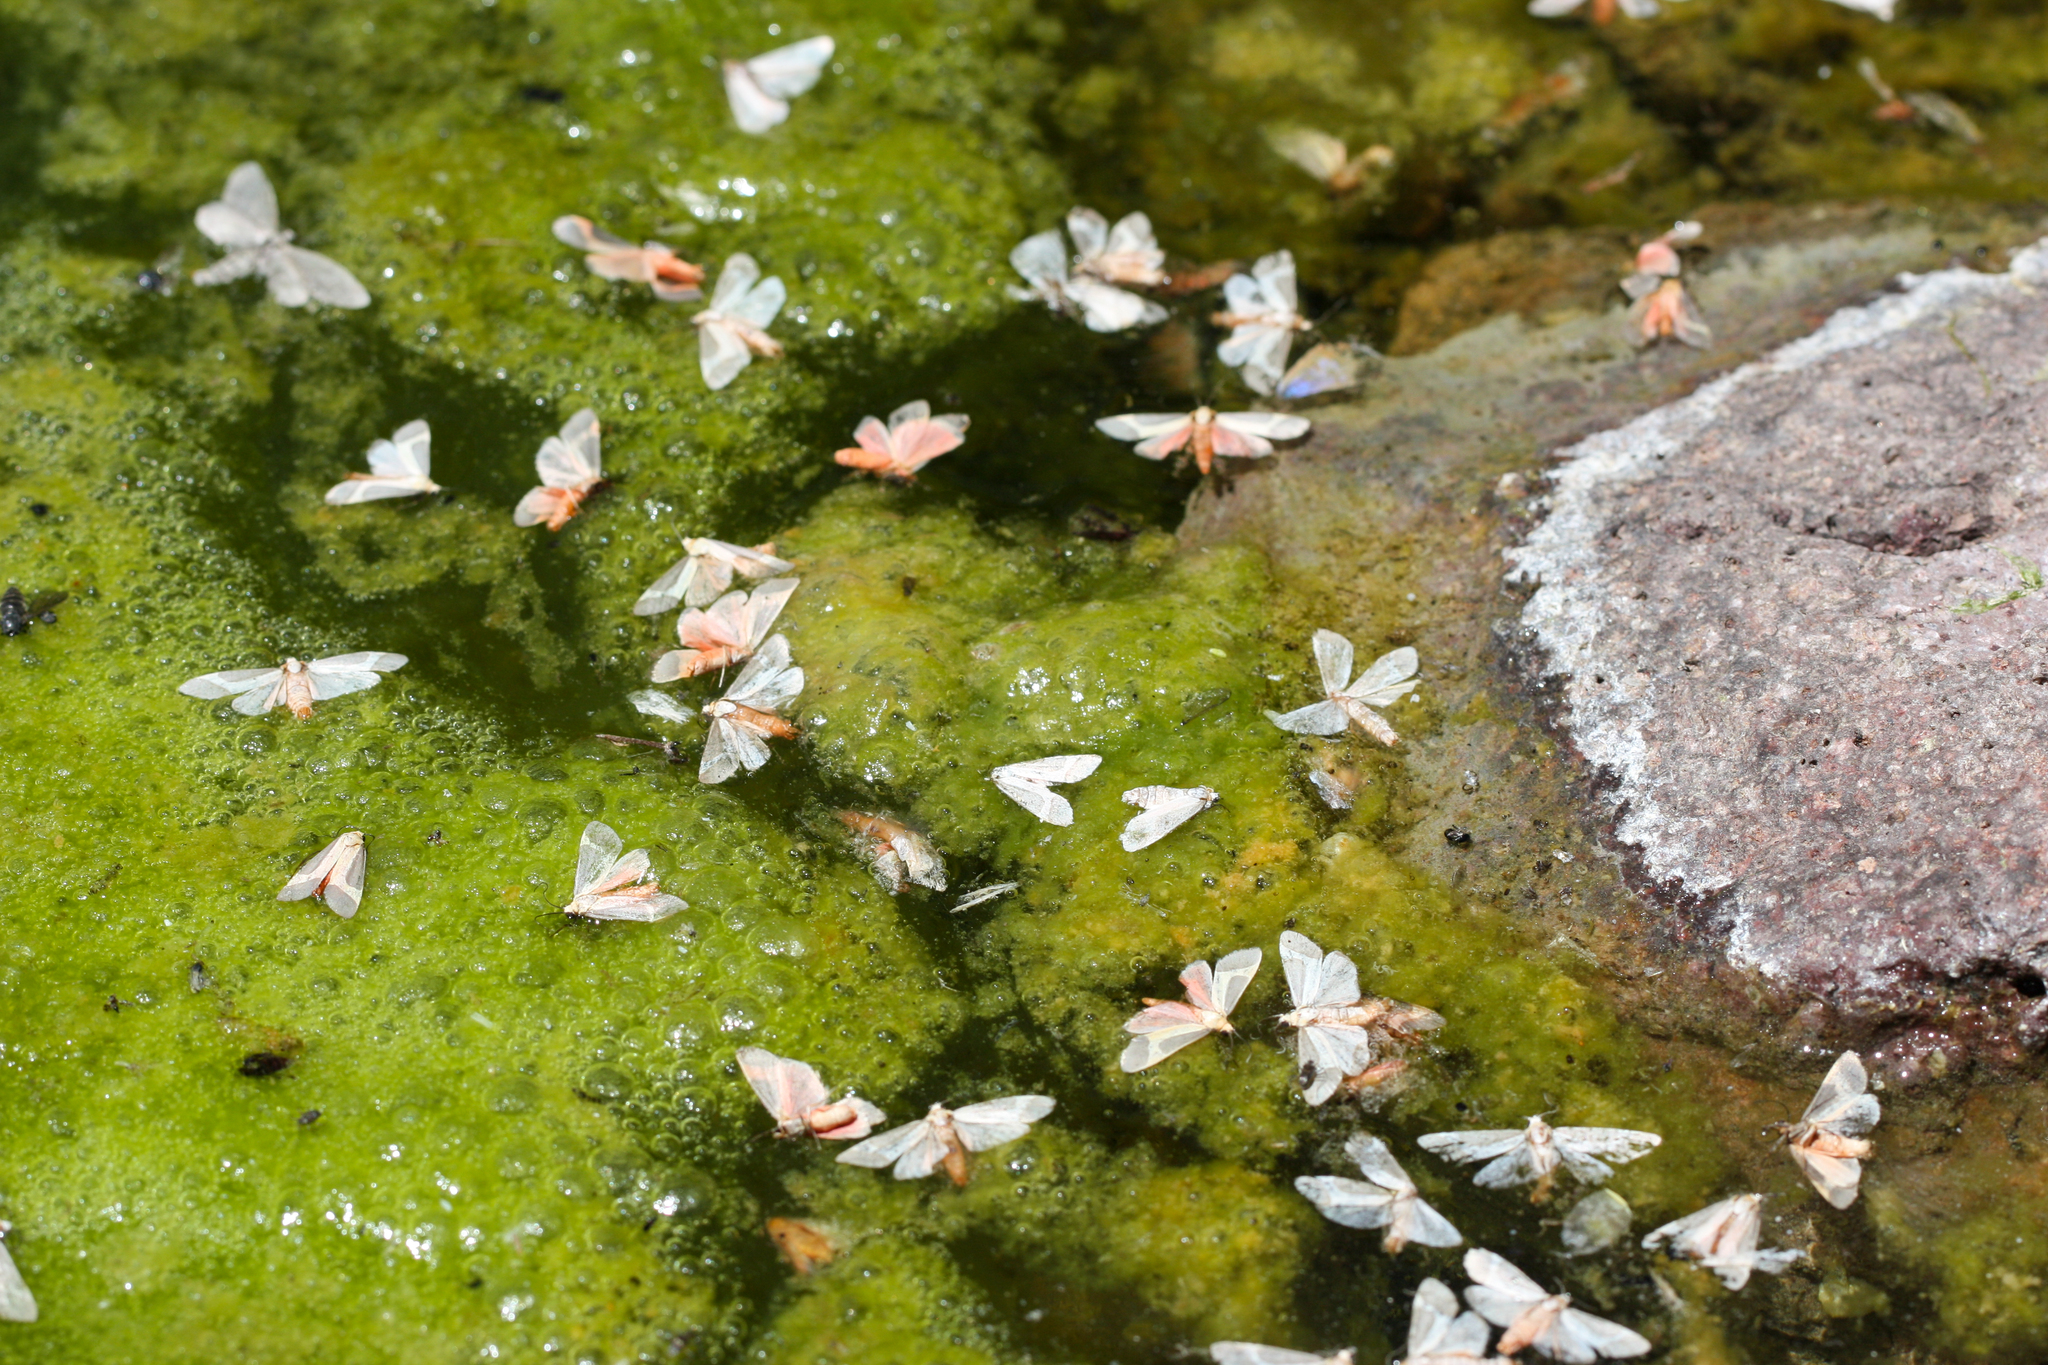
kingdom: Animalia
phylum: Arthropoda
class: Insecta
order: Lepidoptera
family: Erebidae
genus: Cisthene
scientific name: Cisthene angelus
